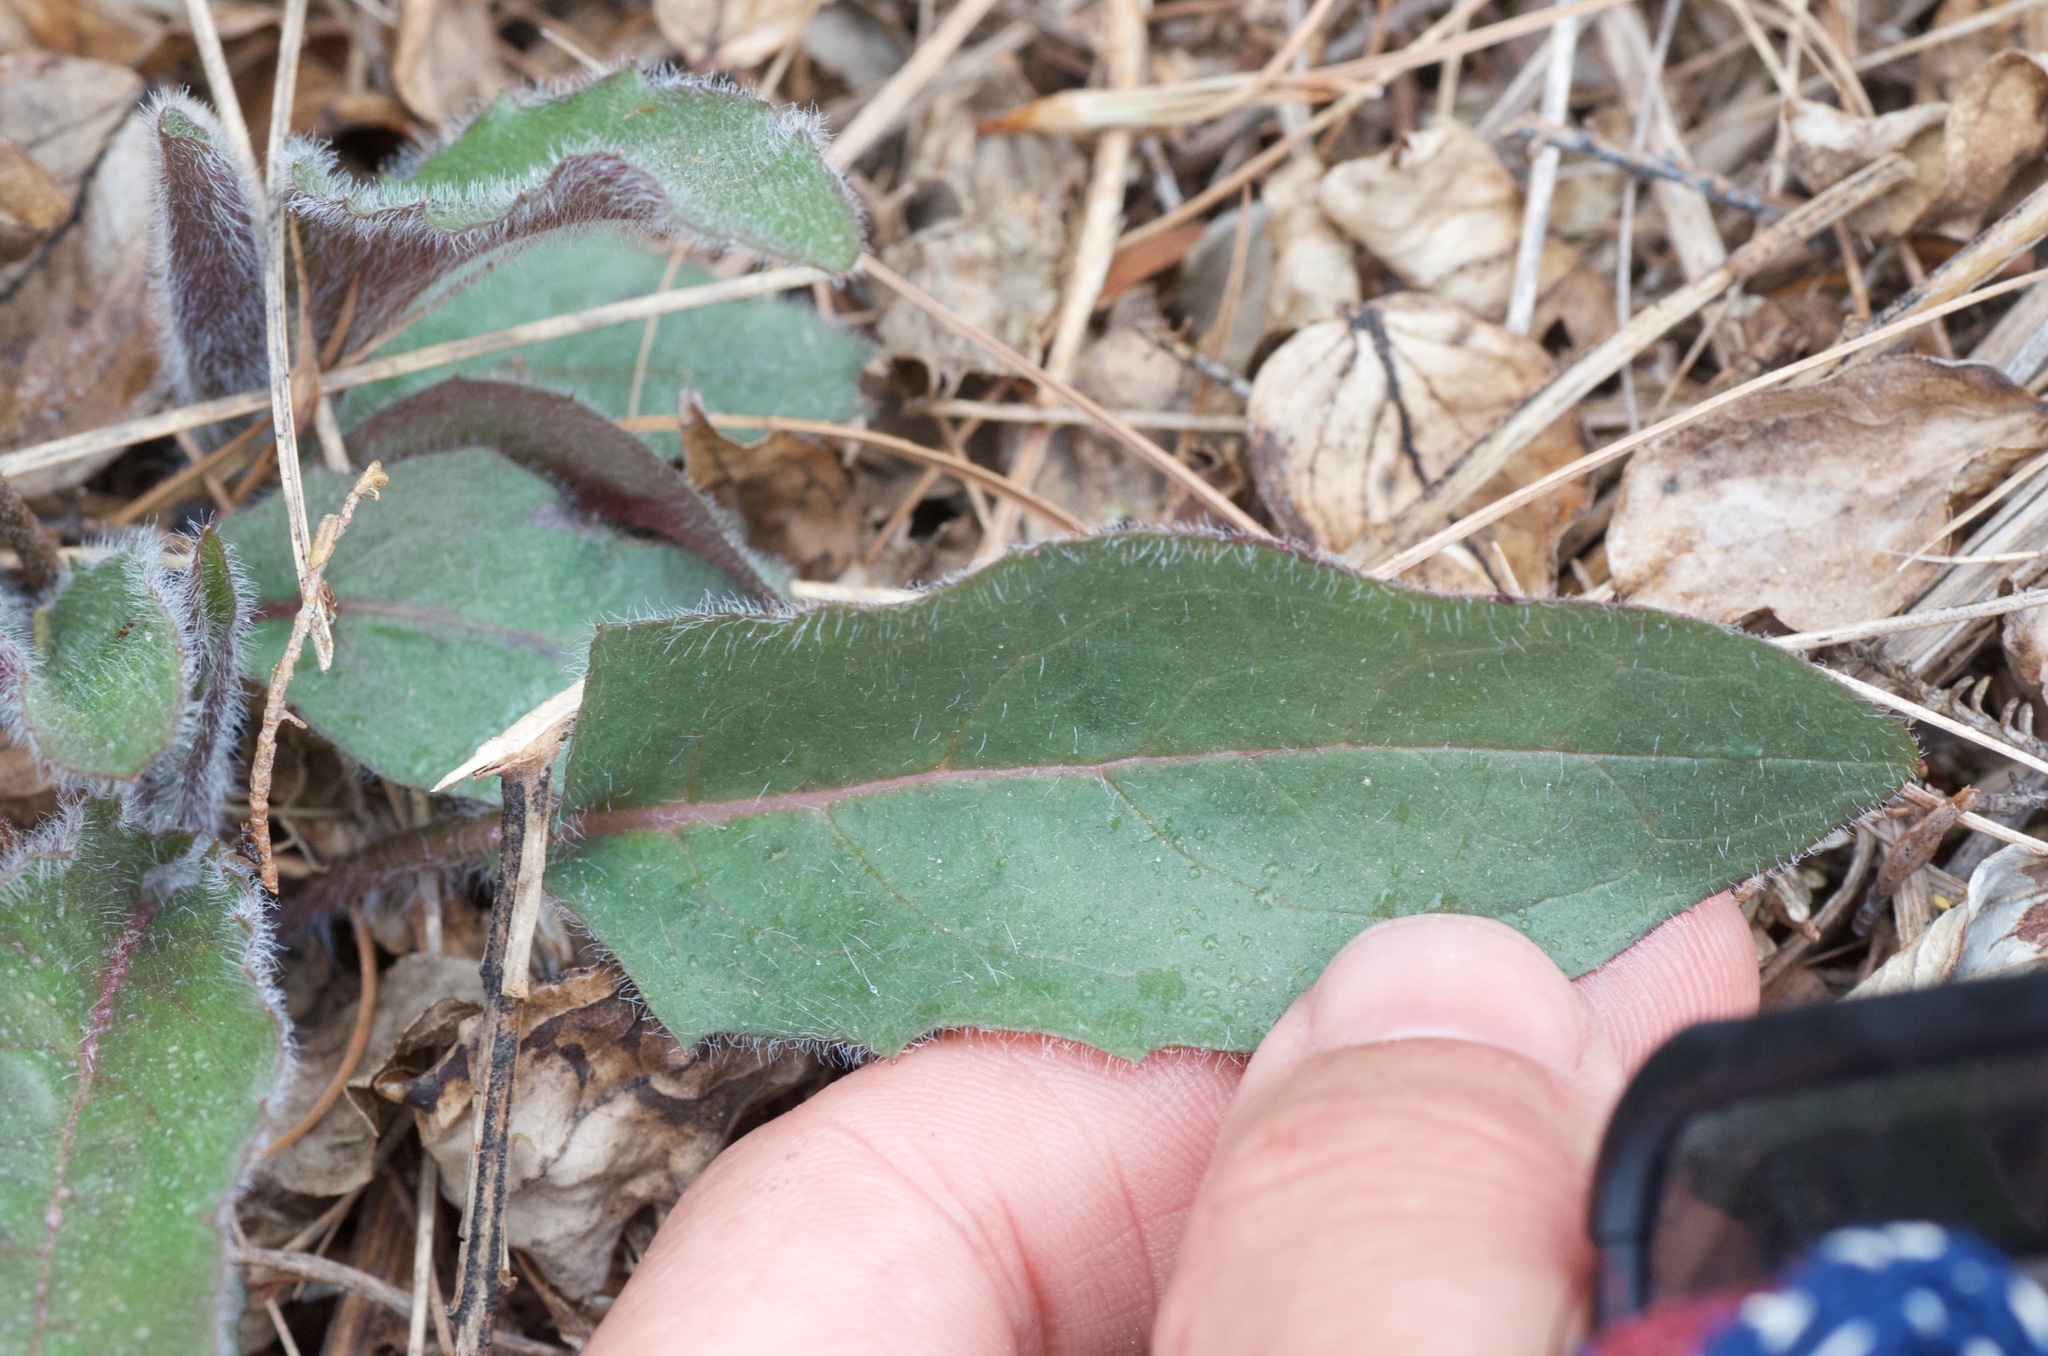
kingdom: Plantae
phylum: Tracheophyta
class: Magnoliopsida
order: Asterales
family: Asteraceae
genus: Hieracium
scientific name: Hieracium lepidulum
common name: Irregular-toothed hawkweed
